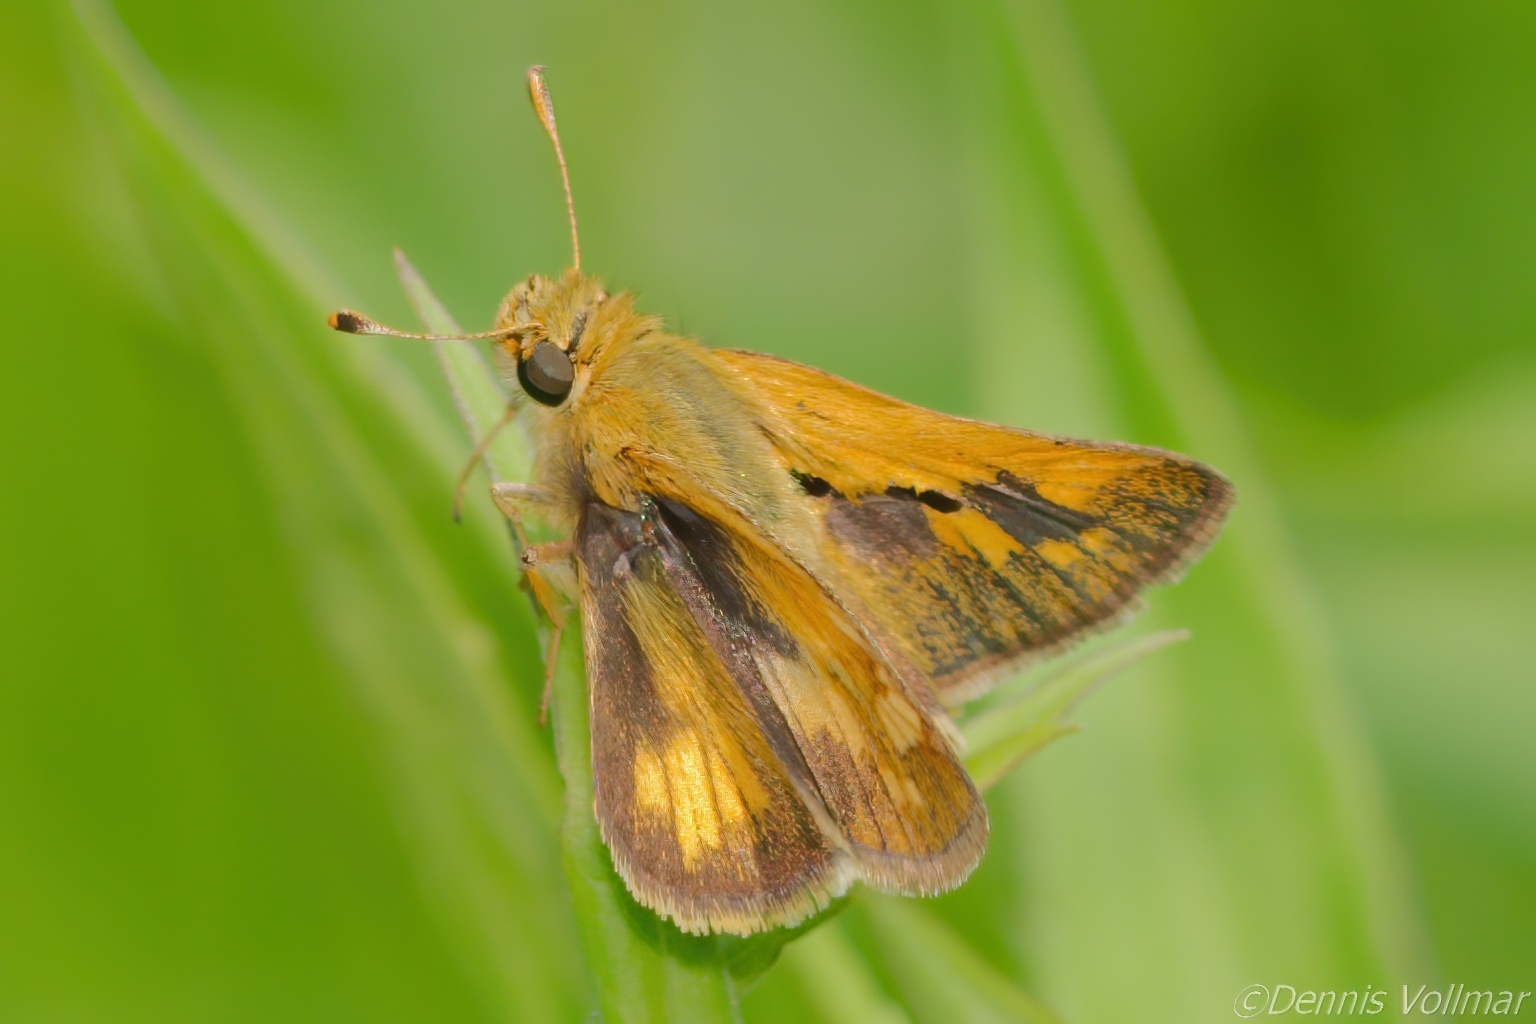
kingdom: Animalia
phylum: Arthropoda
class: Insecta
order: Lepidoptera
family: Hesperiidae
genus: Polites
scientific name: Polites coras
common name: Peck's skipper
